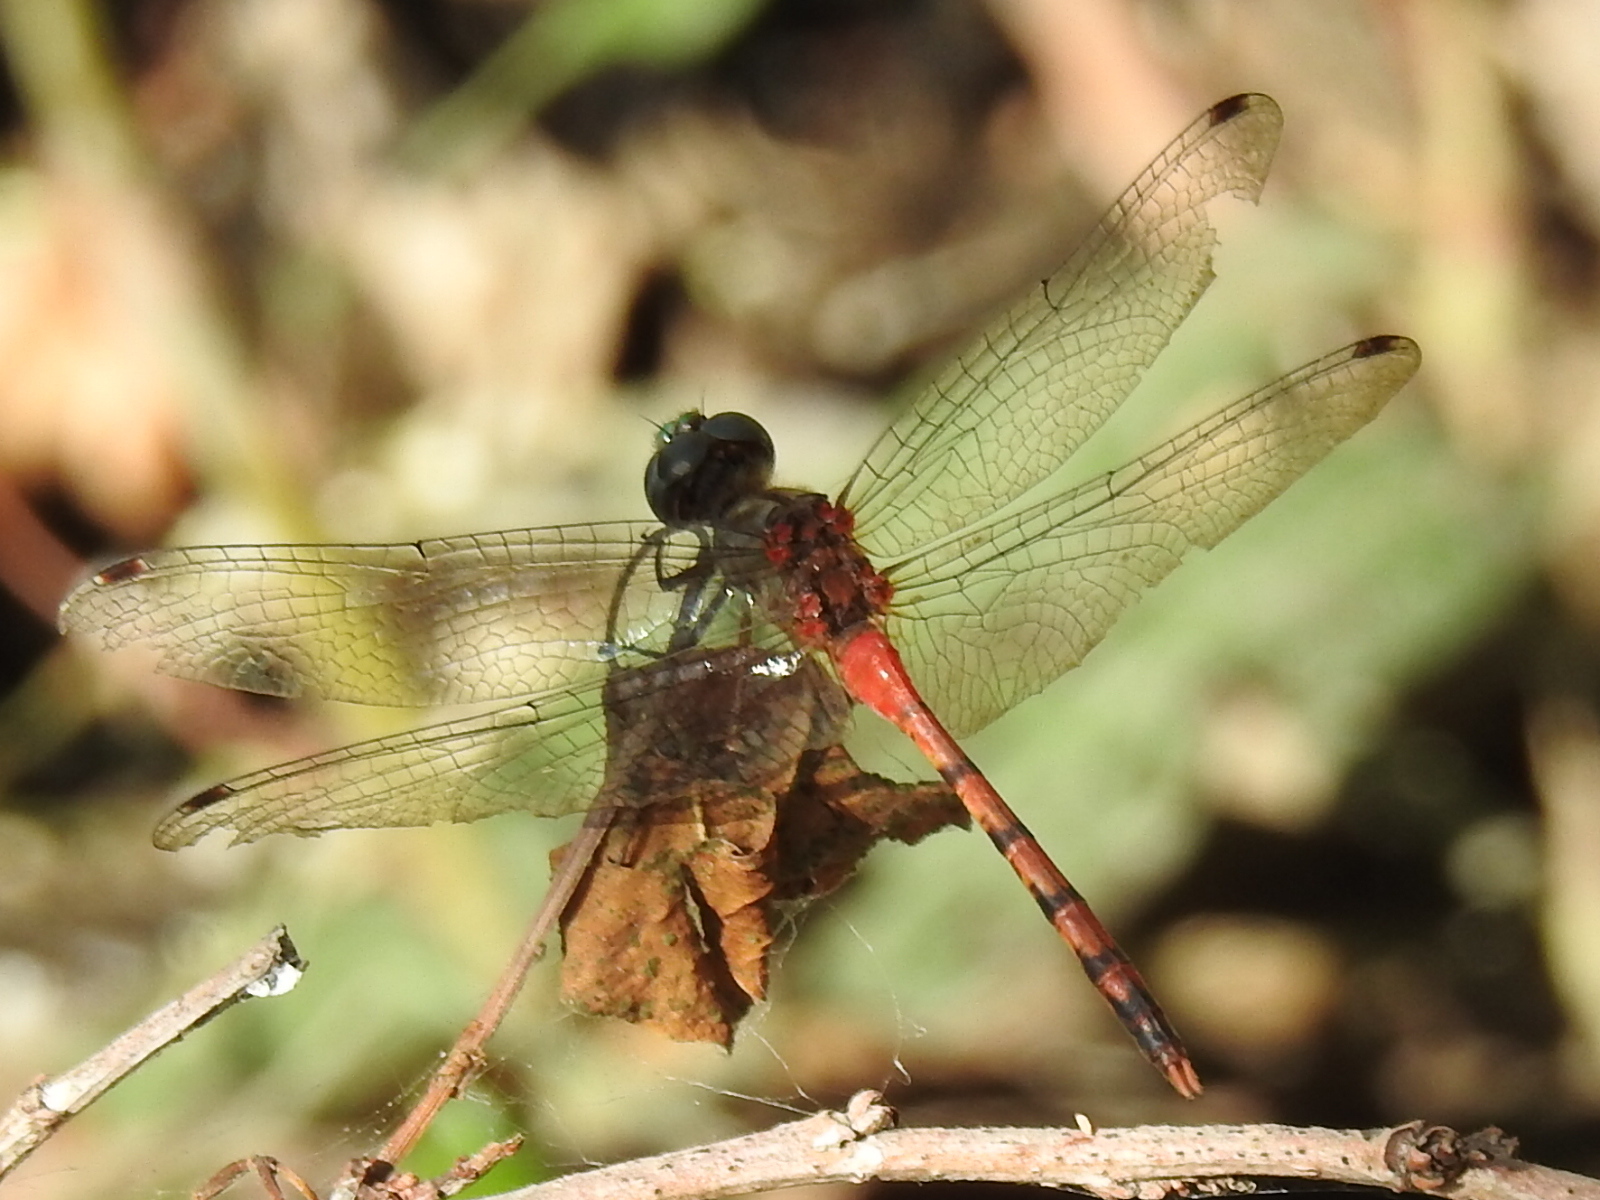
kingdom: Animalia
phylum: Arthropoda
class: Insecta
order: Odonata
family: Libellulidae
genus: Sympetrum
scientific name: Sympetrum ambiguum
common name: Blue-faced meadowhawk
